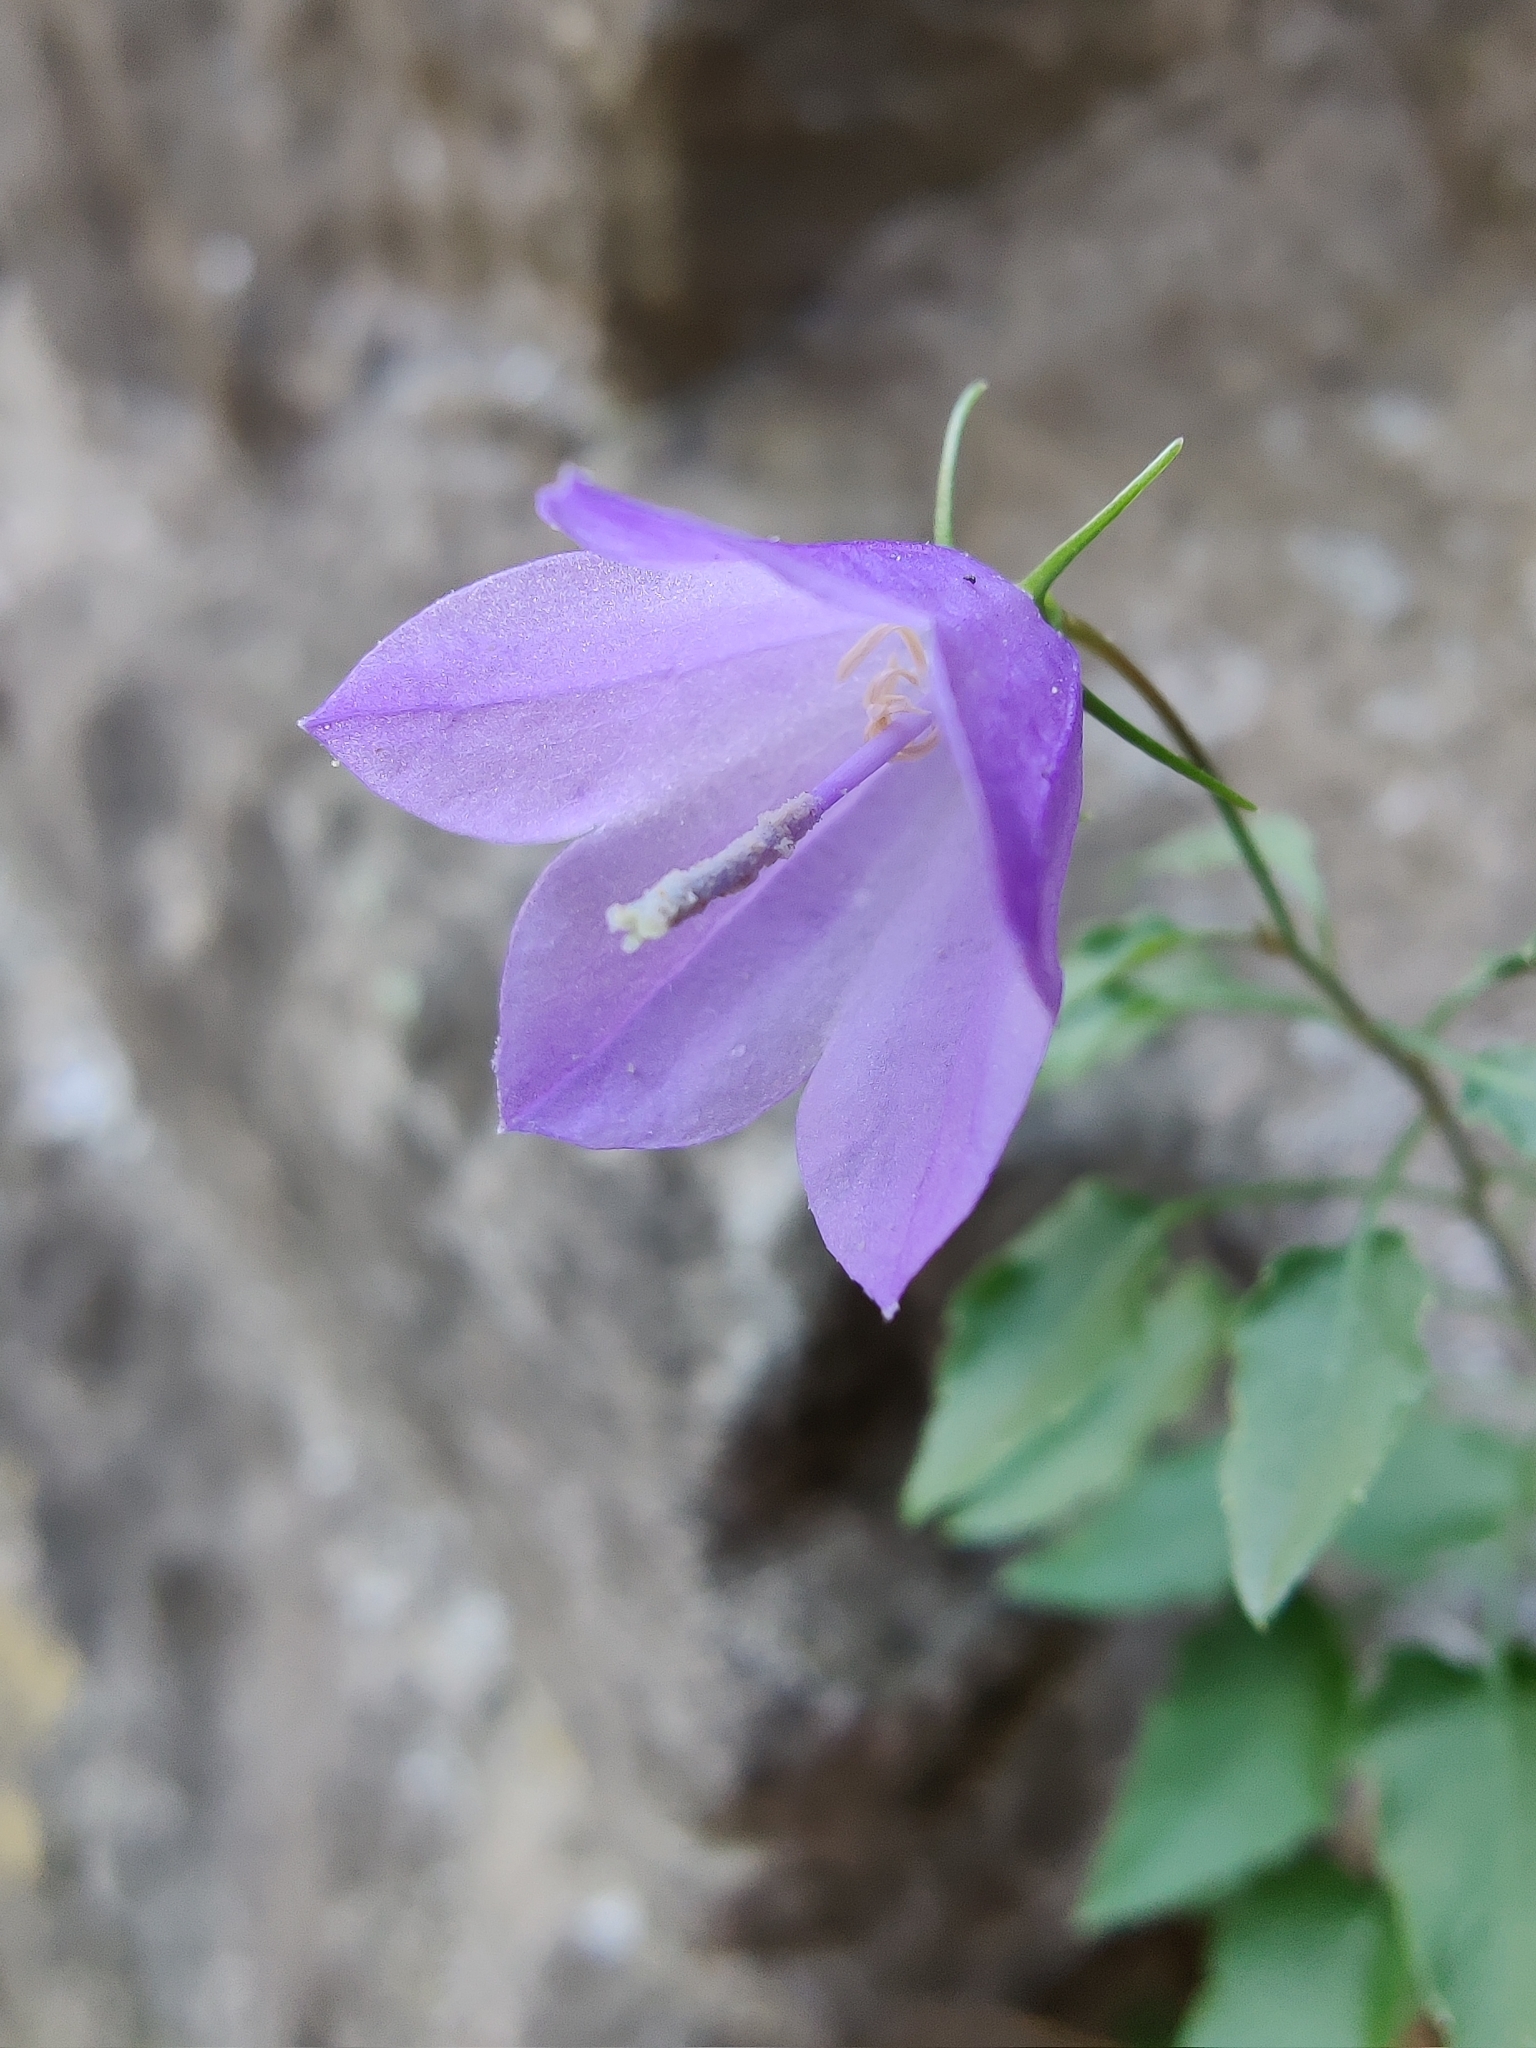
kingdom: Plantae
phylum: Tracheophyta
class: Magnoliopsida
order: Asterales
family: Campanulaceae
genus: Campanula
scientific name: Campanula rotundifolia
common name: Harebell
